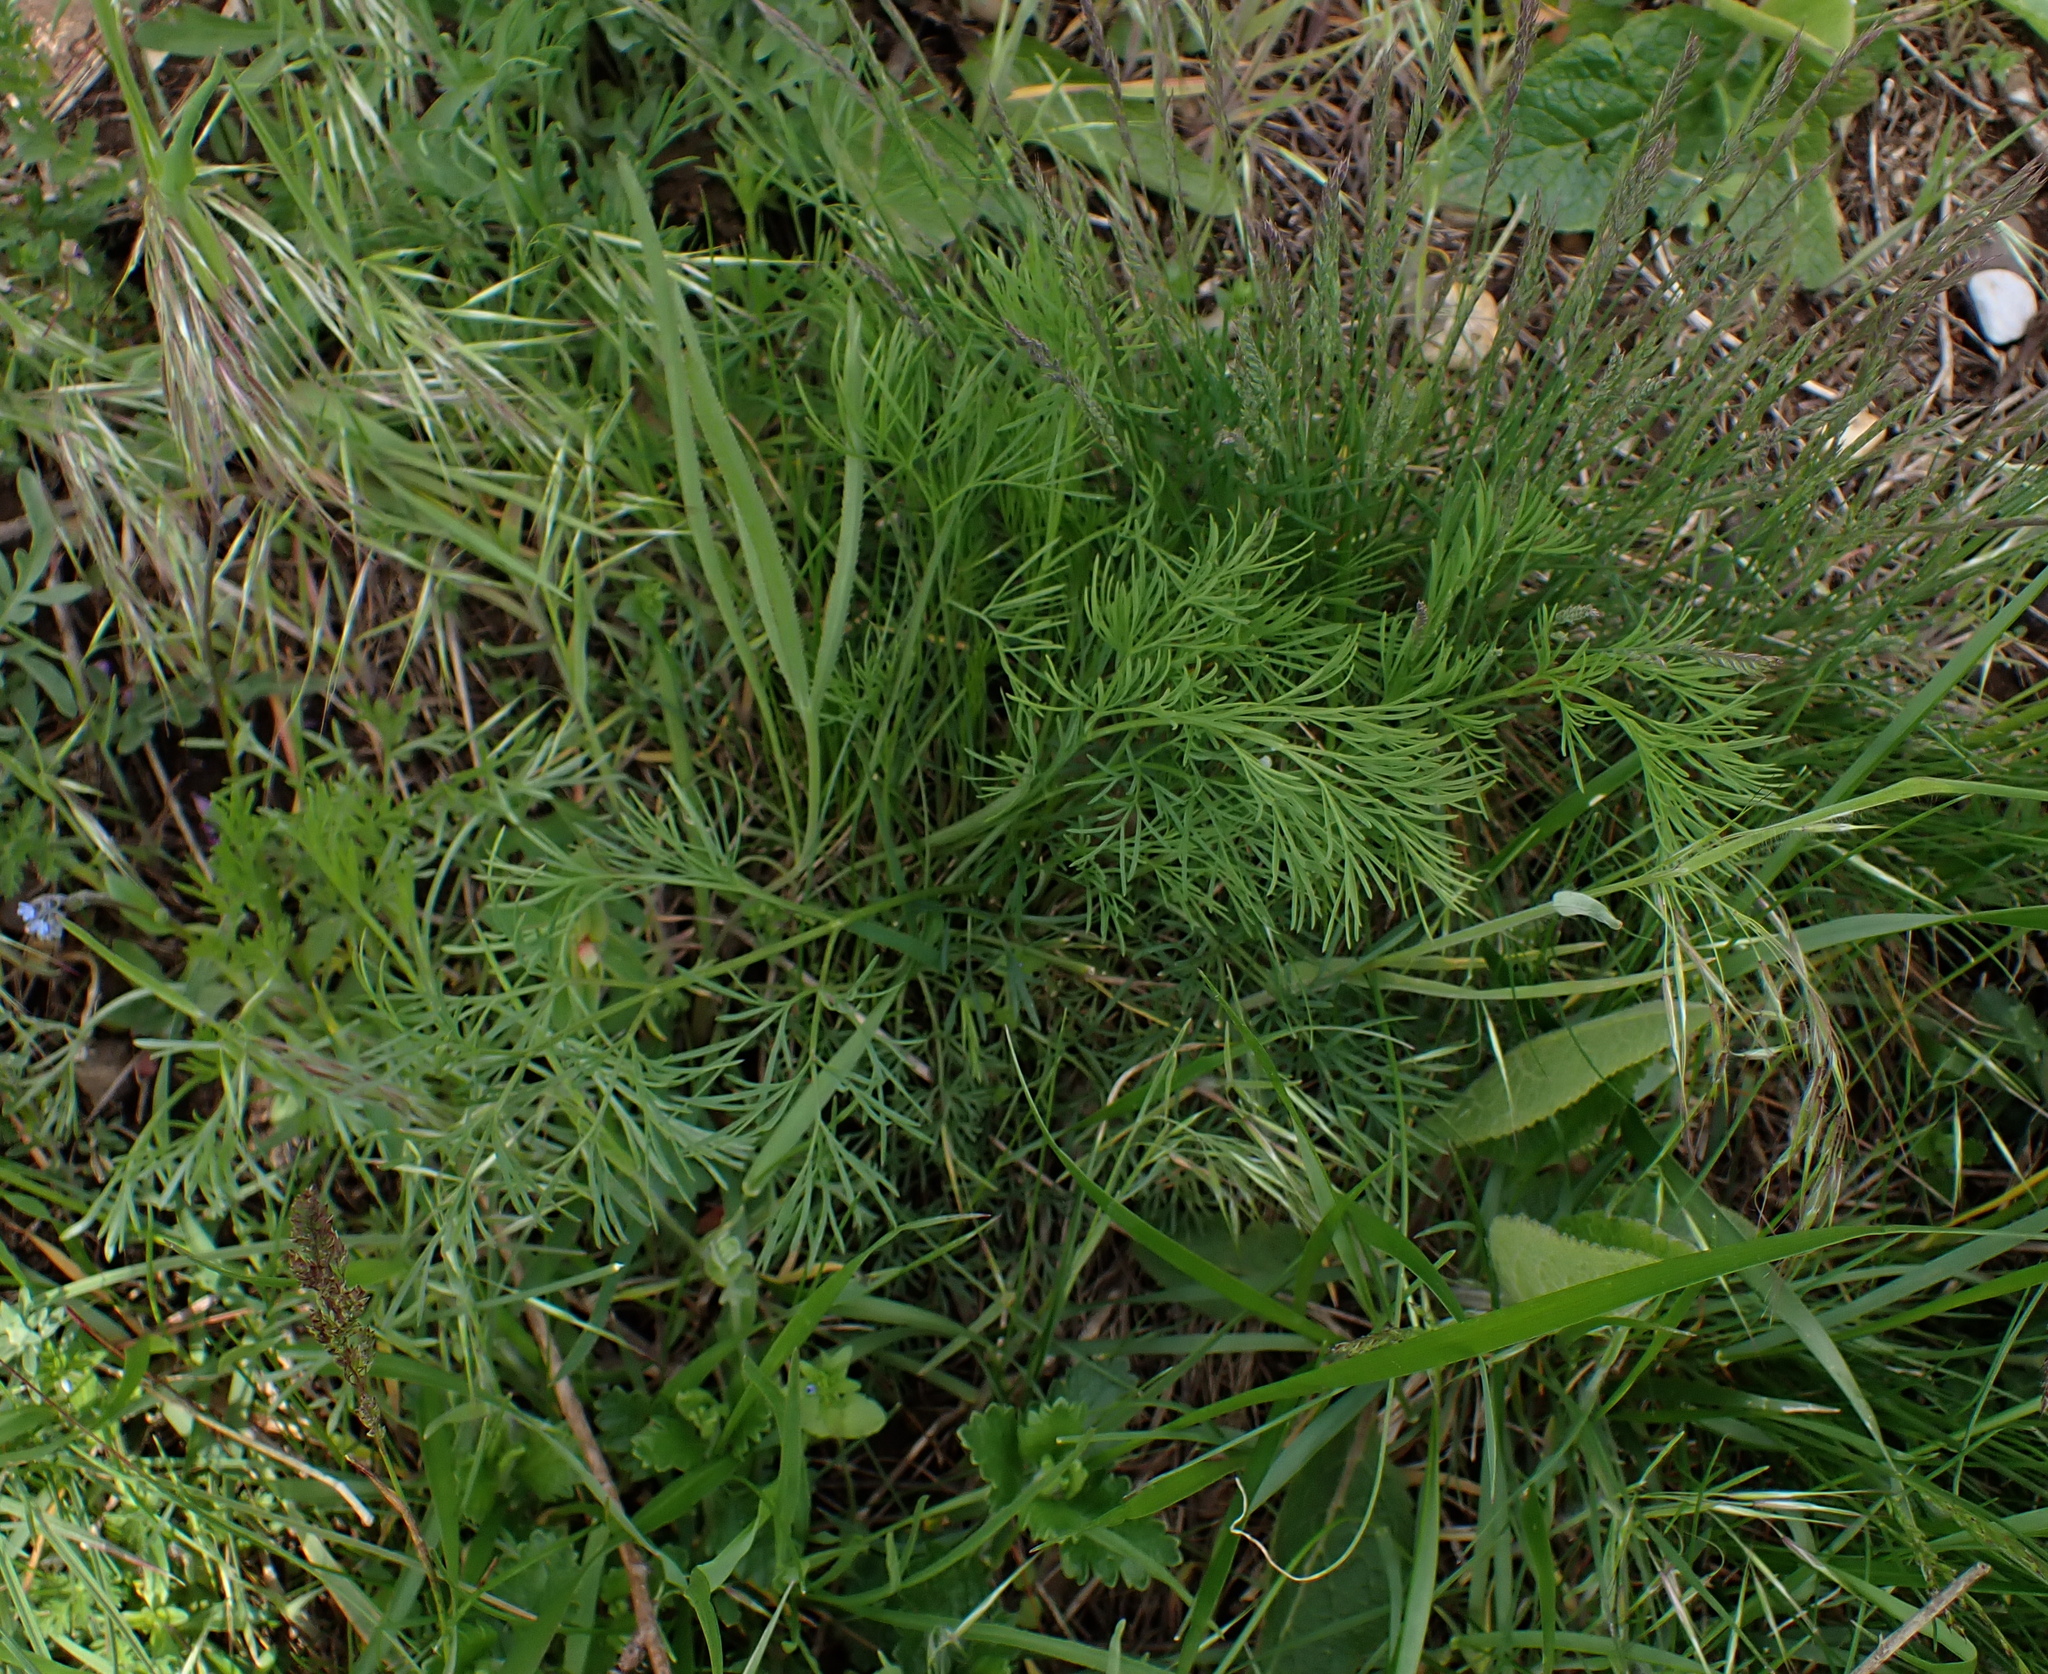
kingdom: Plantae
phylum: Tracheophyta
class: Magnoliopsida
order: Apiales
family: Apiaceae
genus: Seseli
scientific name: Seseli pallasii
